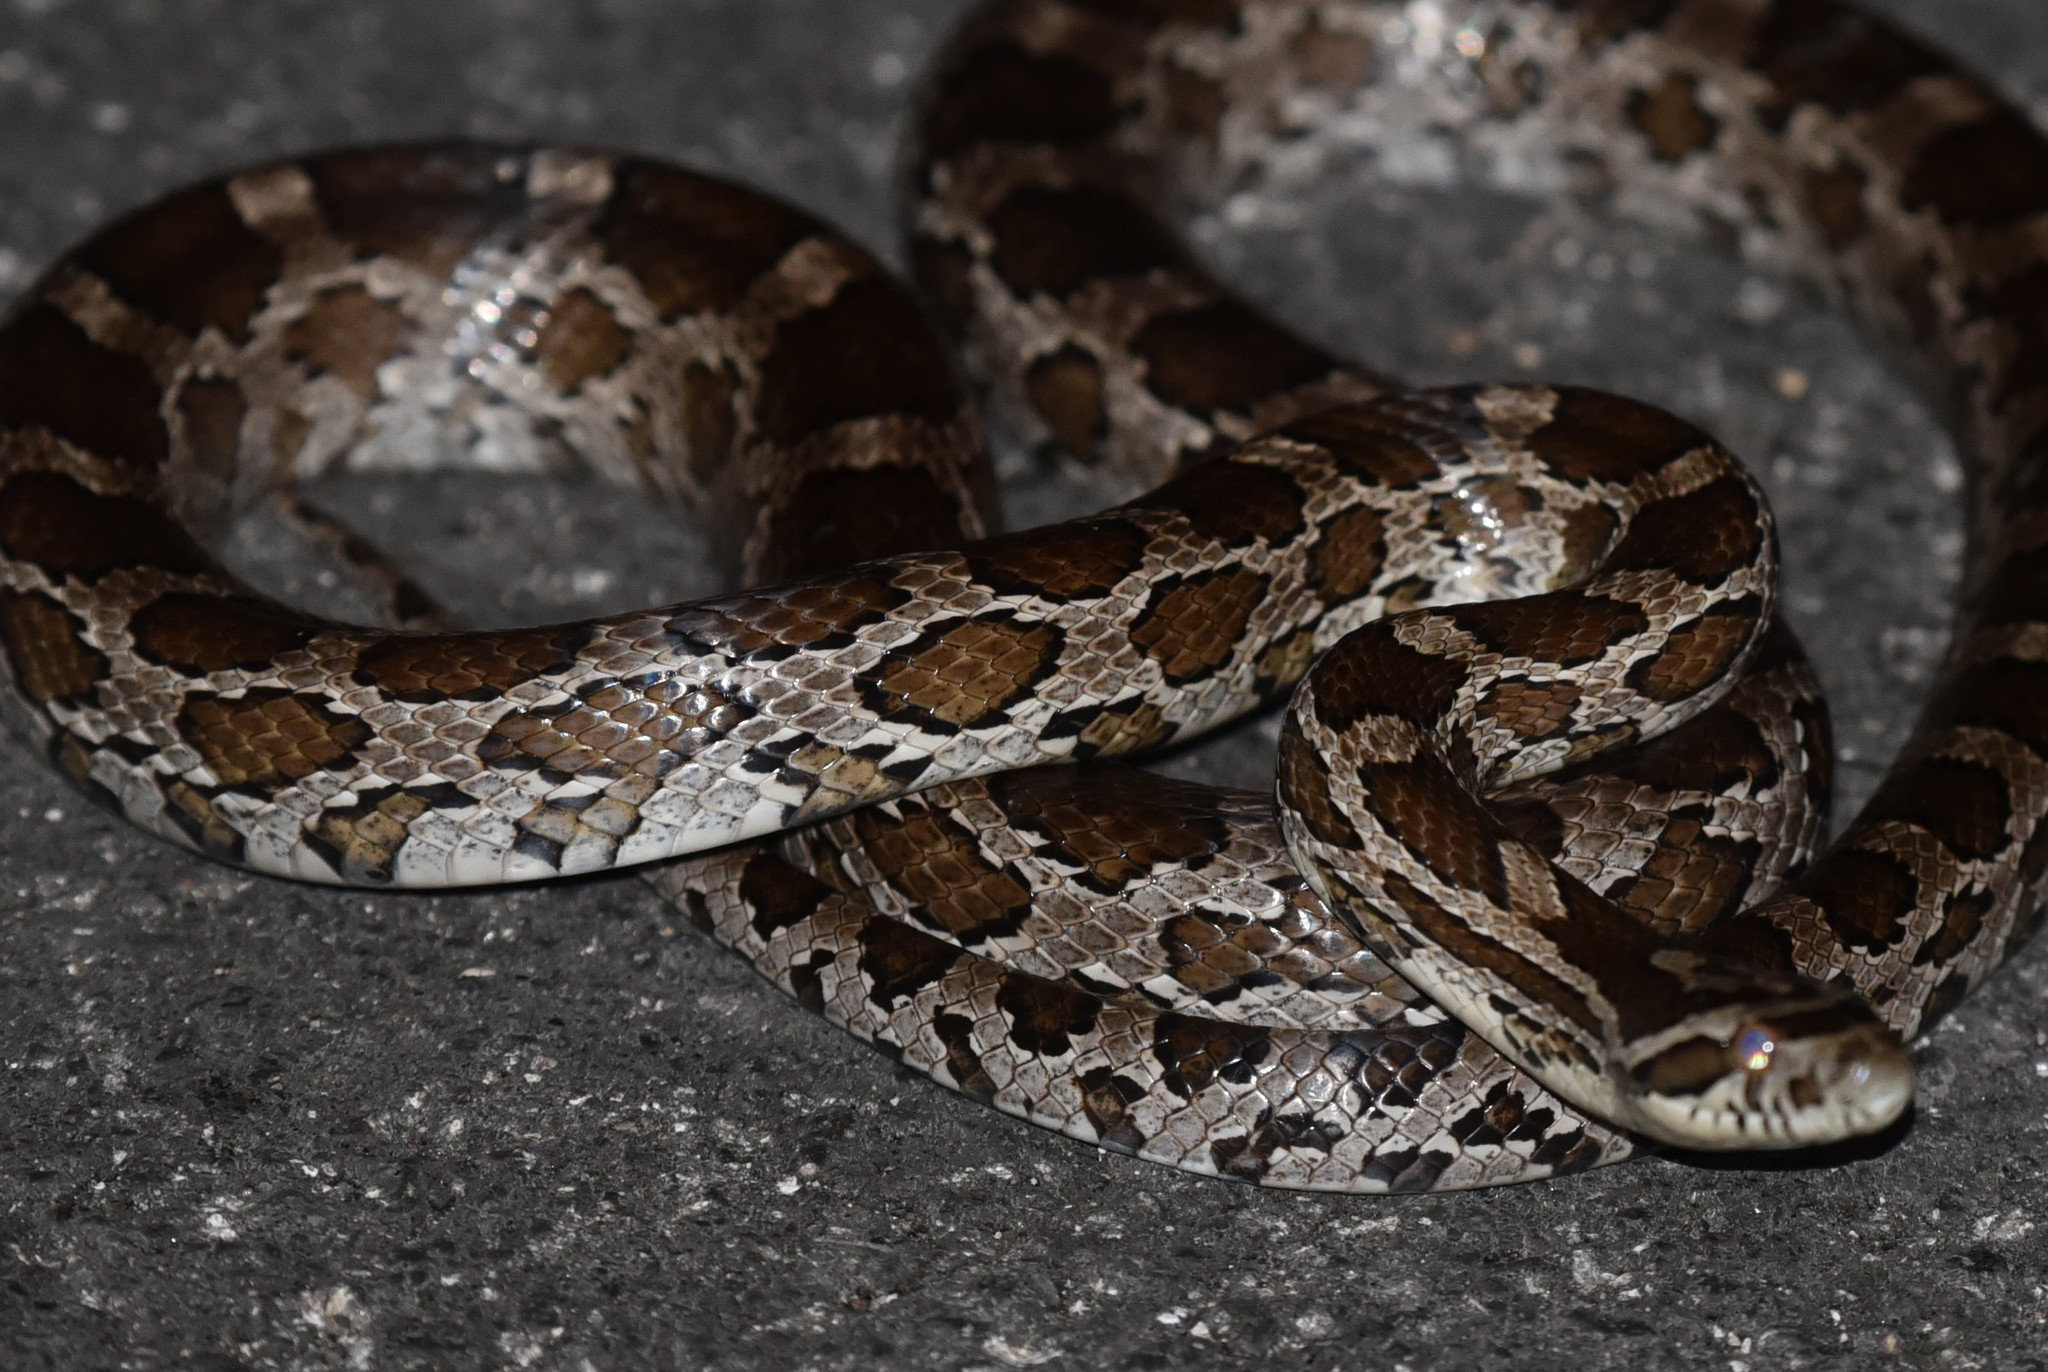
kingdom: Animalia
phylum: Chordata
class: Squamata
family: Colubridae
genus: Pantherophis
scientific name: Pantherophis emoryi
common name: Great plains rat snake
